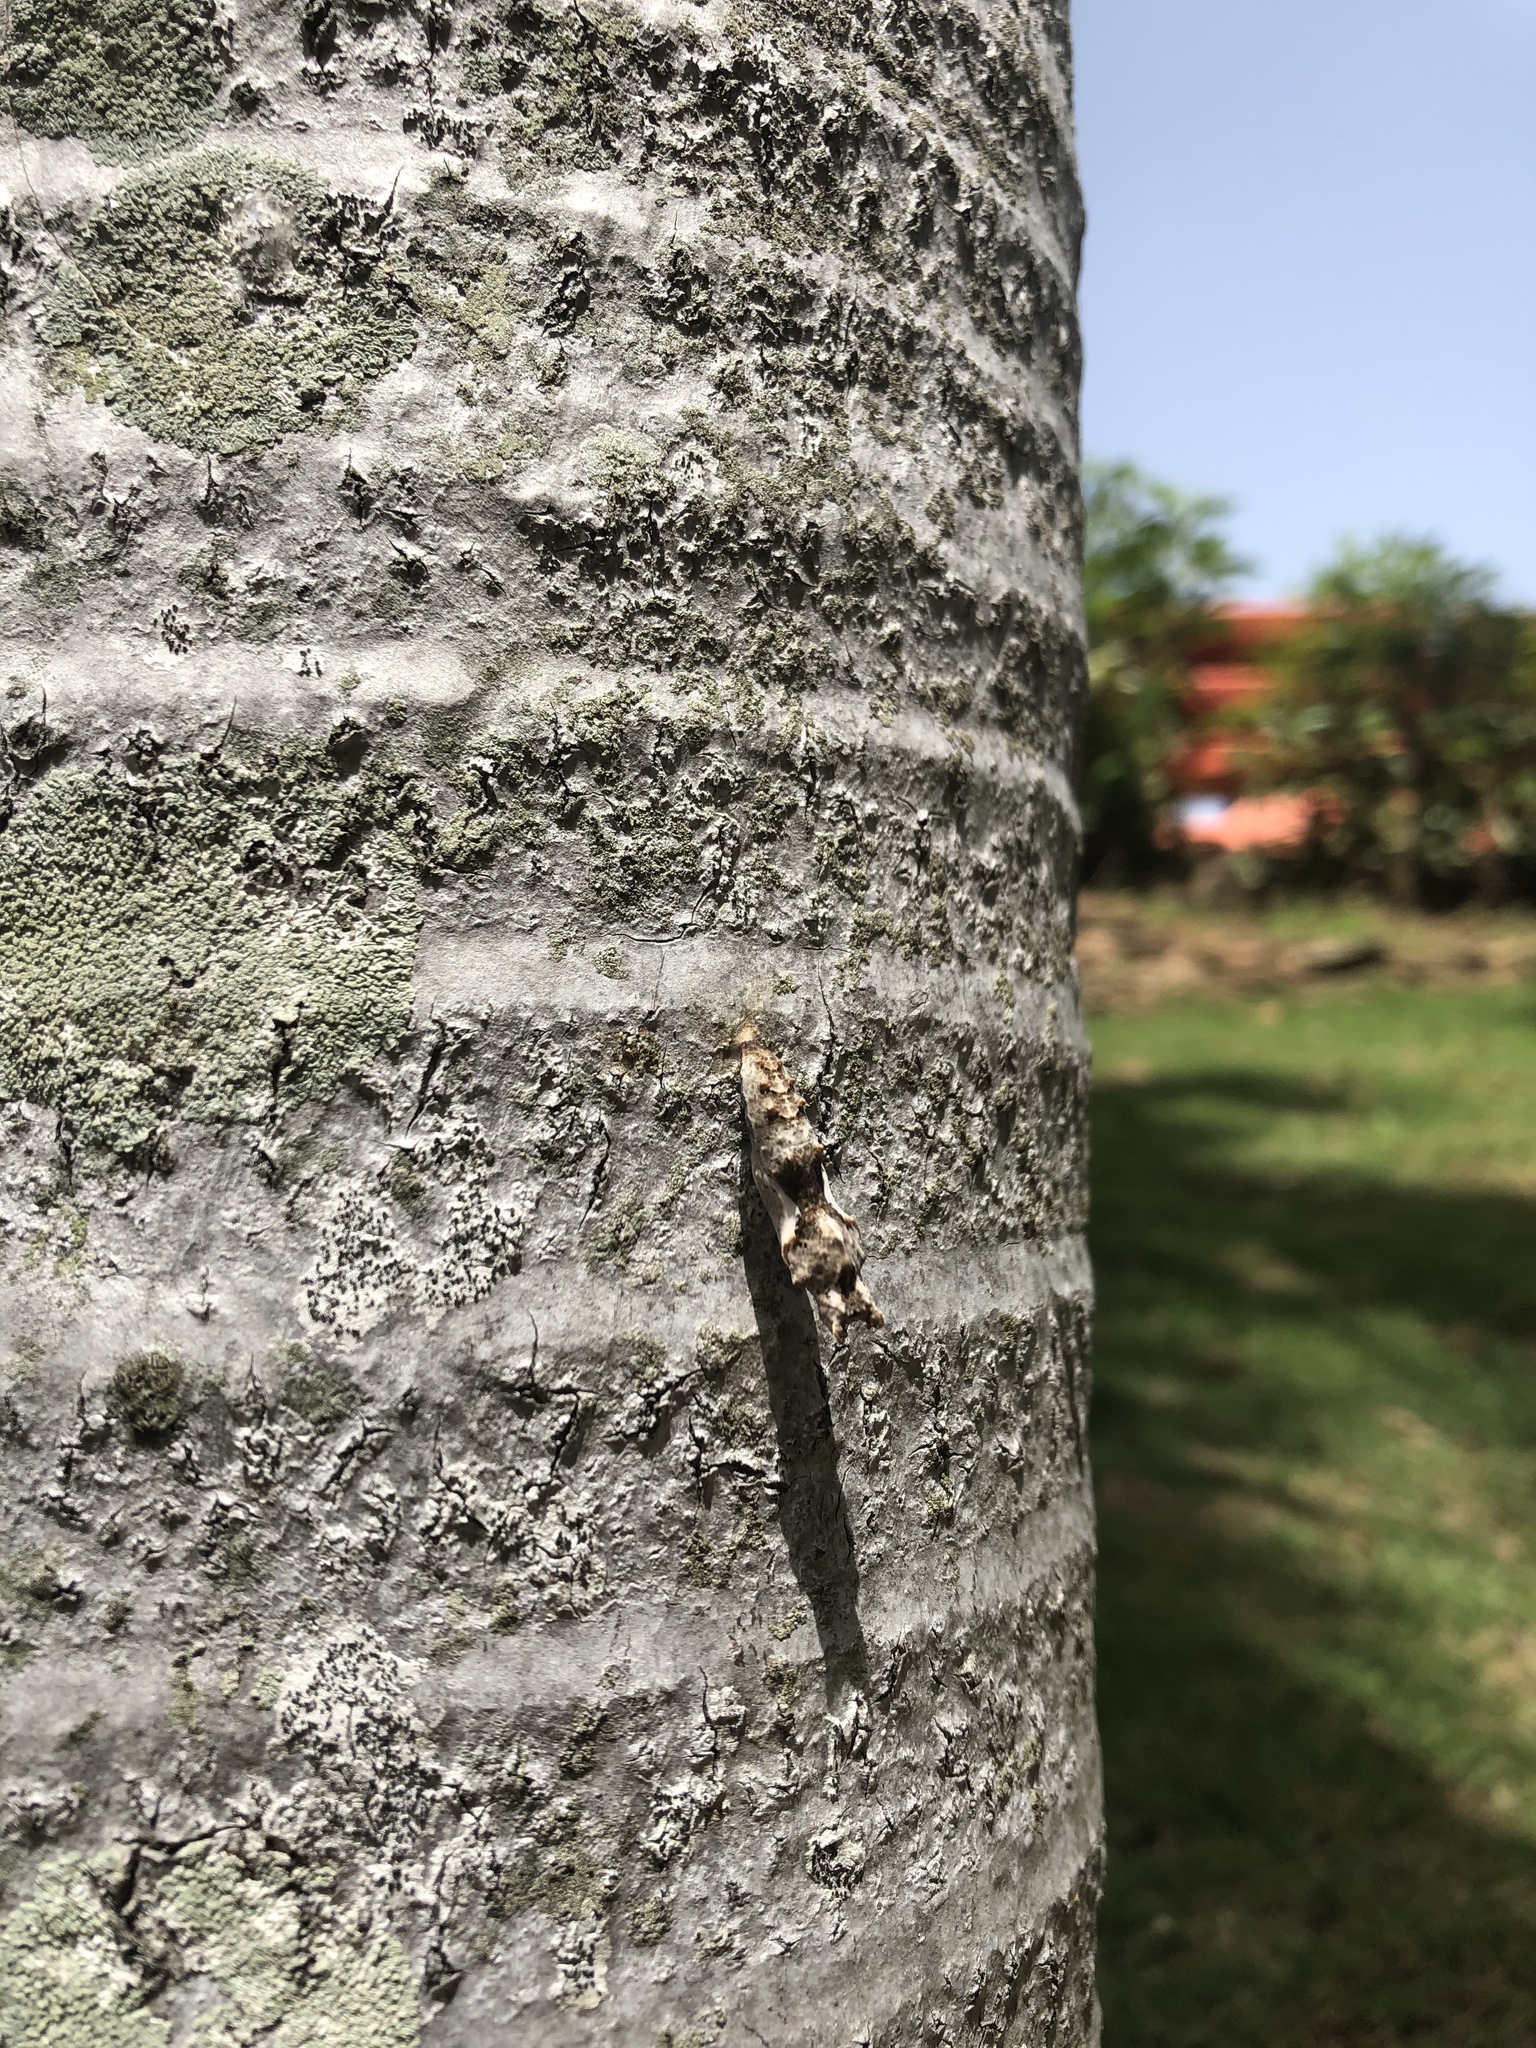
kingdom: Animalia
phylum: Arthropoda
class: Insecta
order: Lepidoptera
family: Nymphalidae
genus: Dione
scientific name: Dione vanillae
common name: Gulf fritillary
